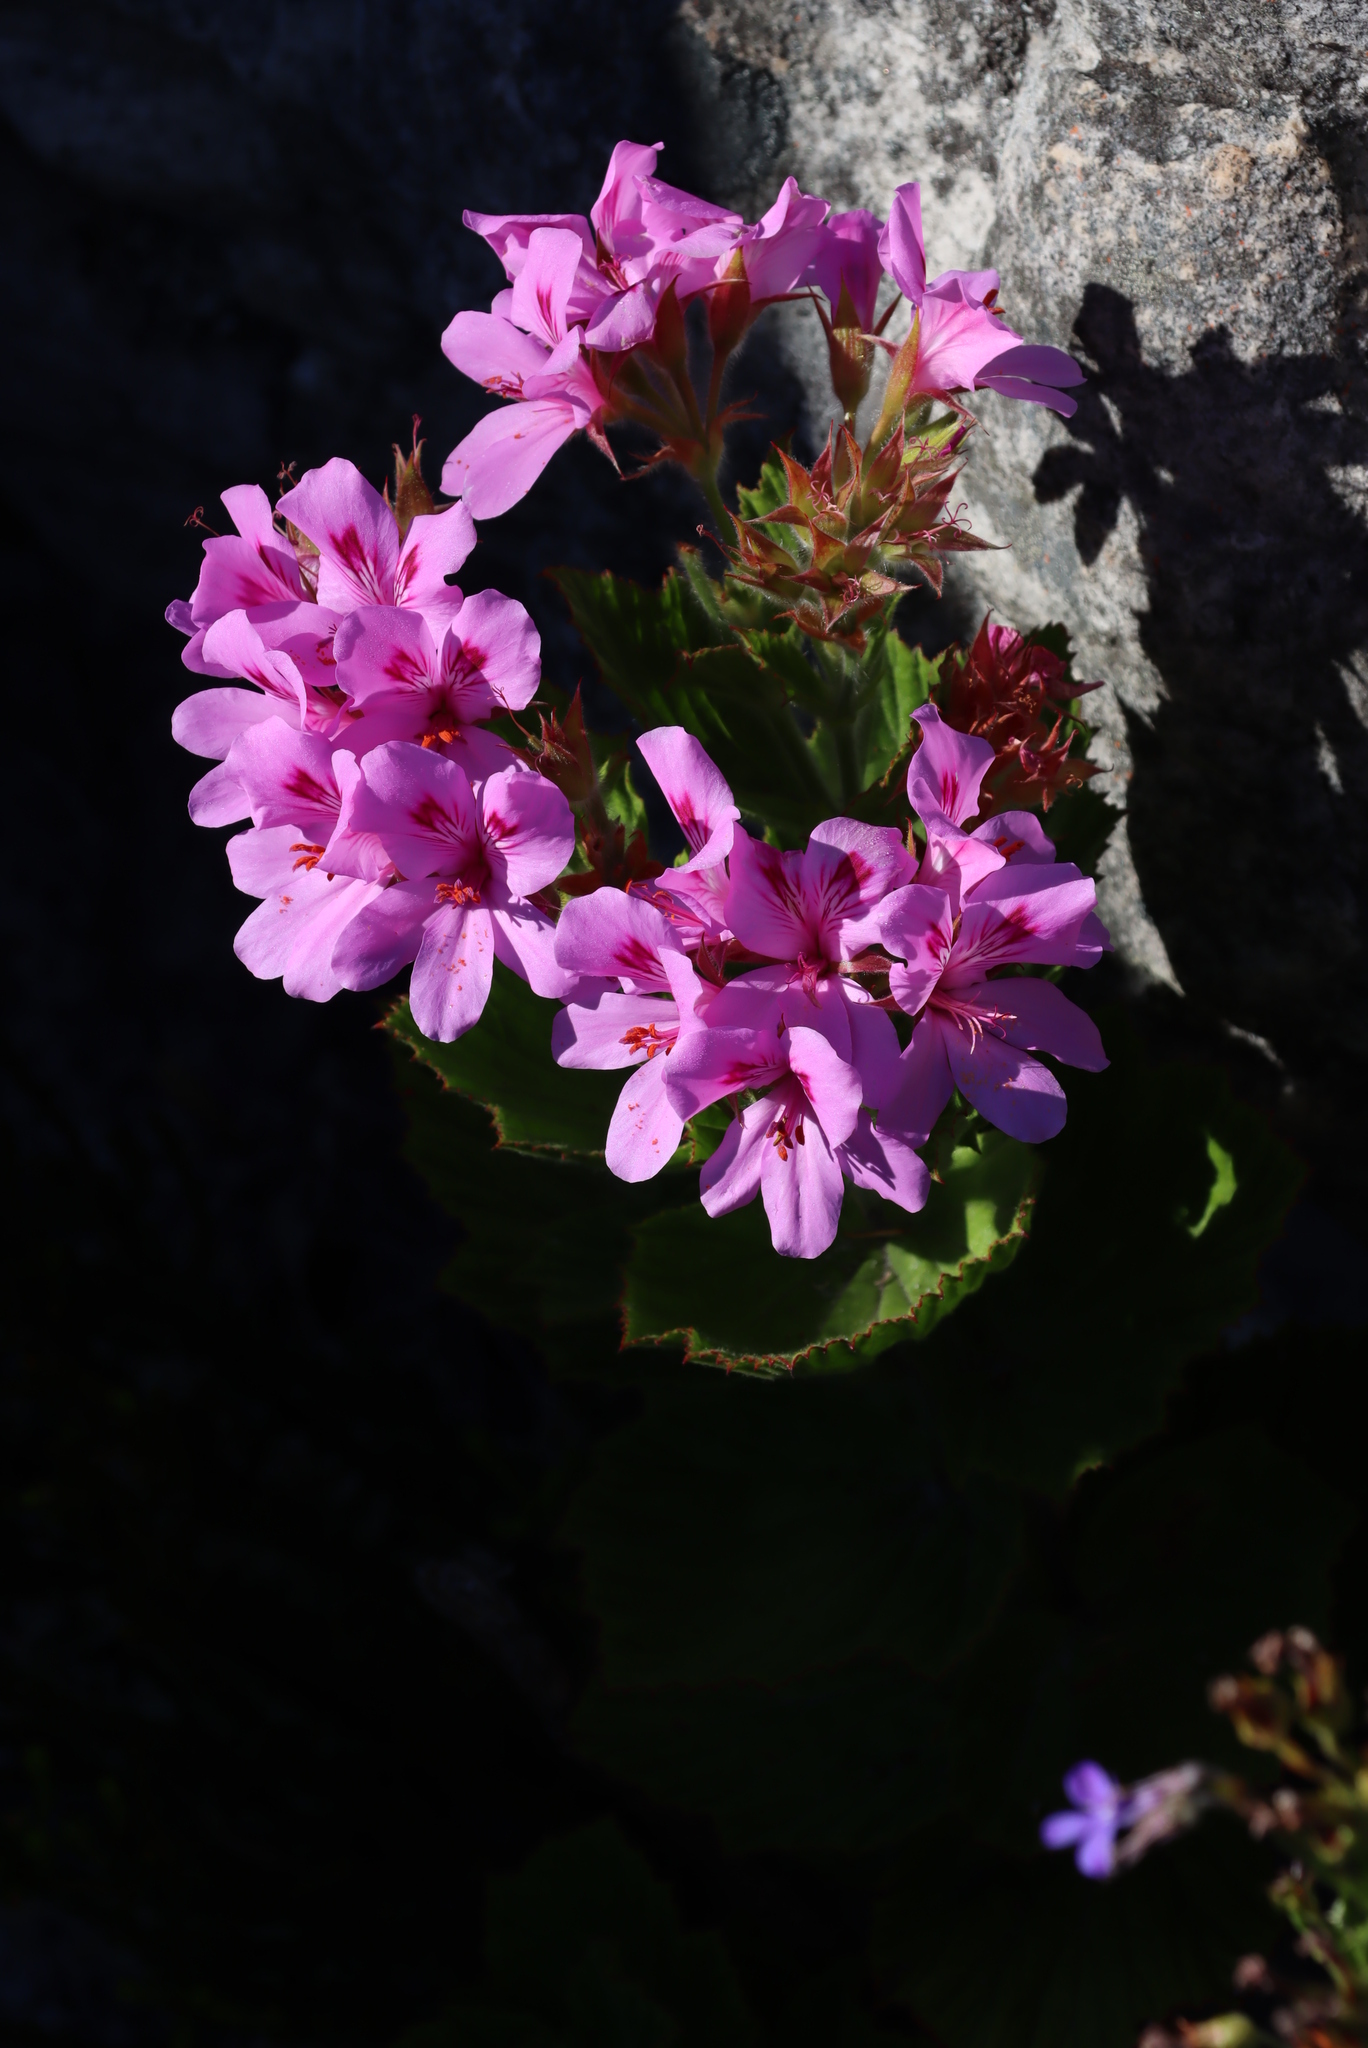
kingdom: Plantae
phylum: Tracheophyta
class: Magnoliopsida
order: Geraniales
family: Geraniaceae
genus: Pelargonium
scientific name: Pelargonium cucullatum
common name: Tree pelargonium
